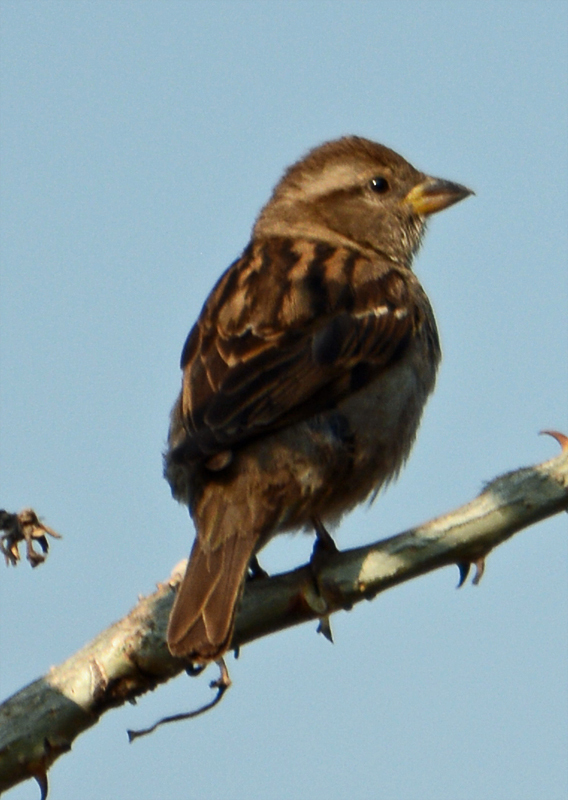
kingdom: Animalia
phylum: Chordata
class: Aves
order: Passeriformes
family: Passeridae
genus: Passer
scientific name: Passer domesticus
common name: House sparrow
